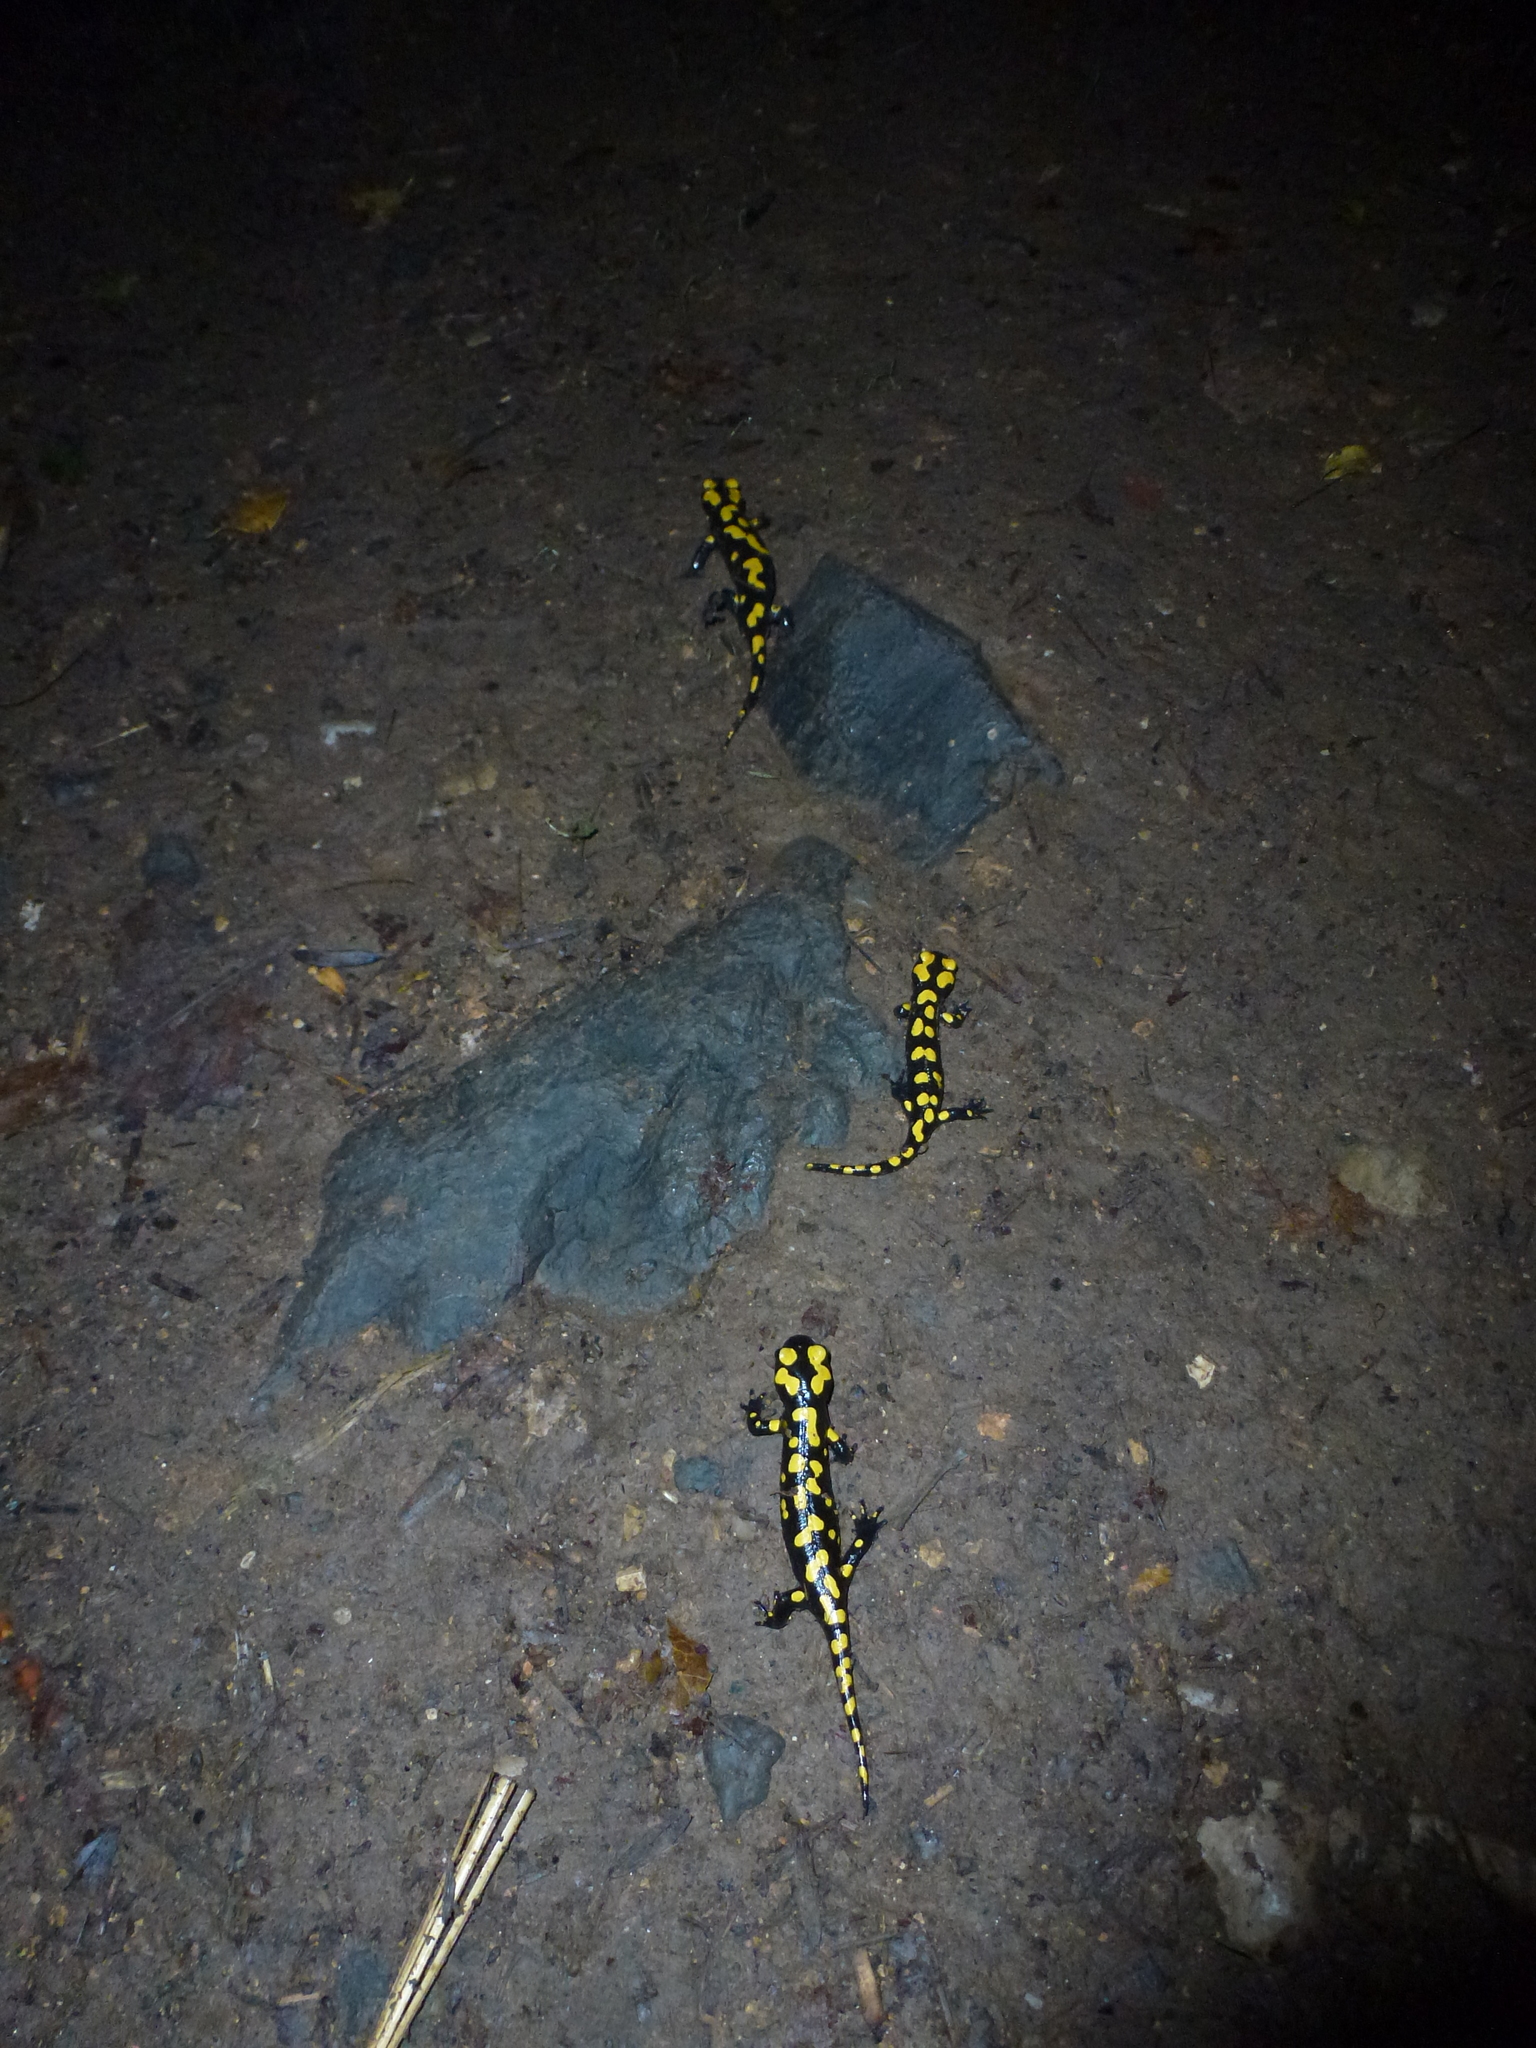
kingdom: Animalia
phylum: Chordata
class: Amphibia
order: Caudata
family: Salamandridae
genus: Salamandra
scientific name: Salamandra infraimmaculata
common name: Near-eastern fire salamander
